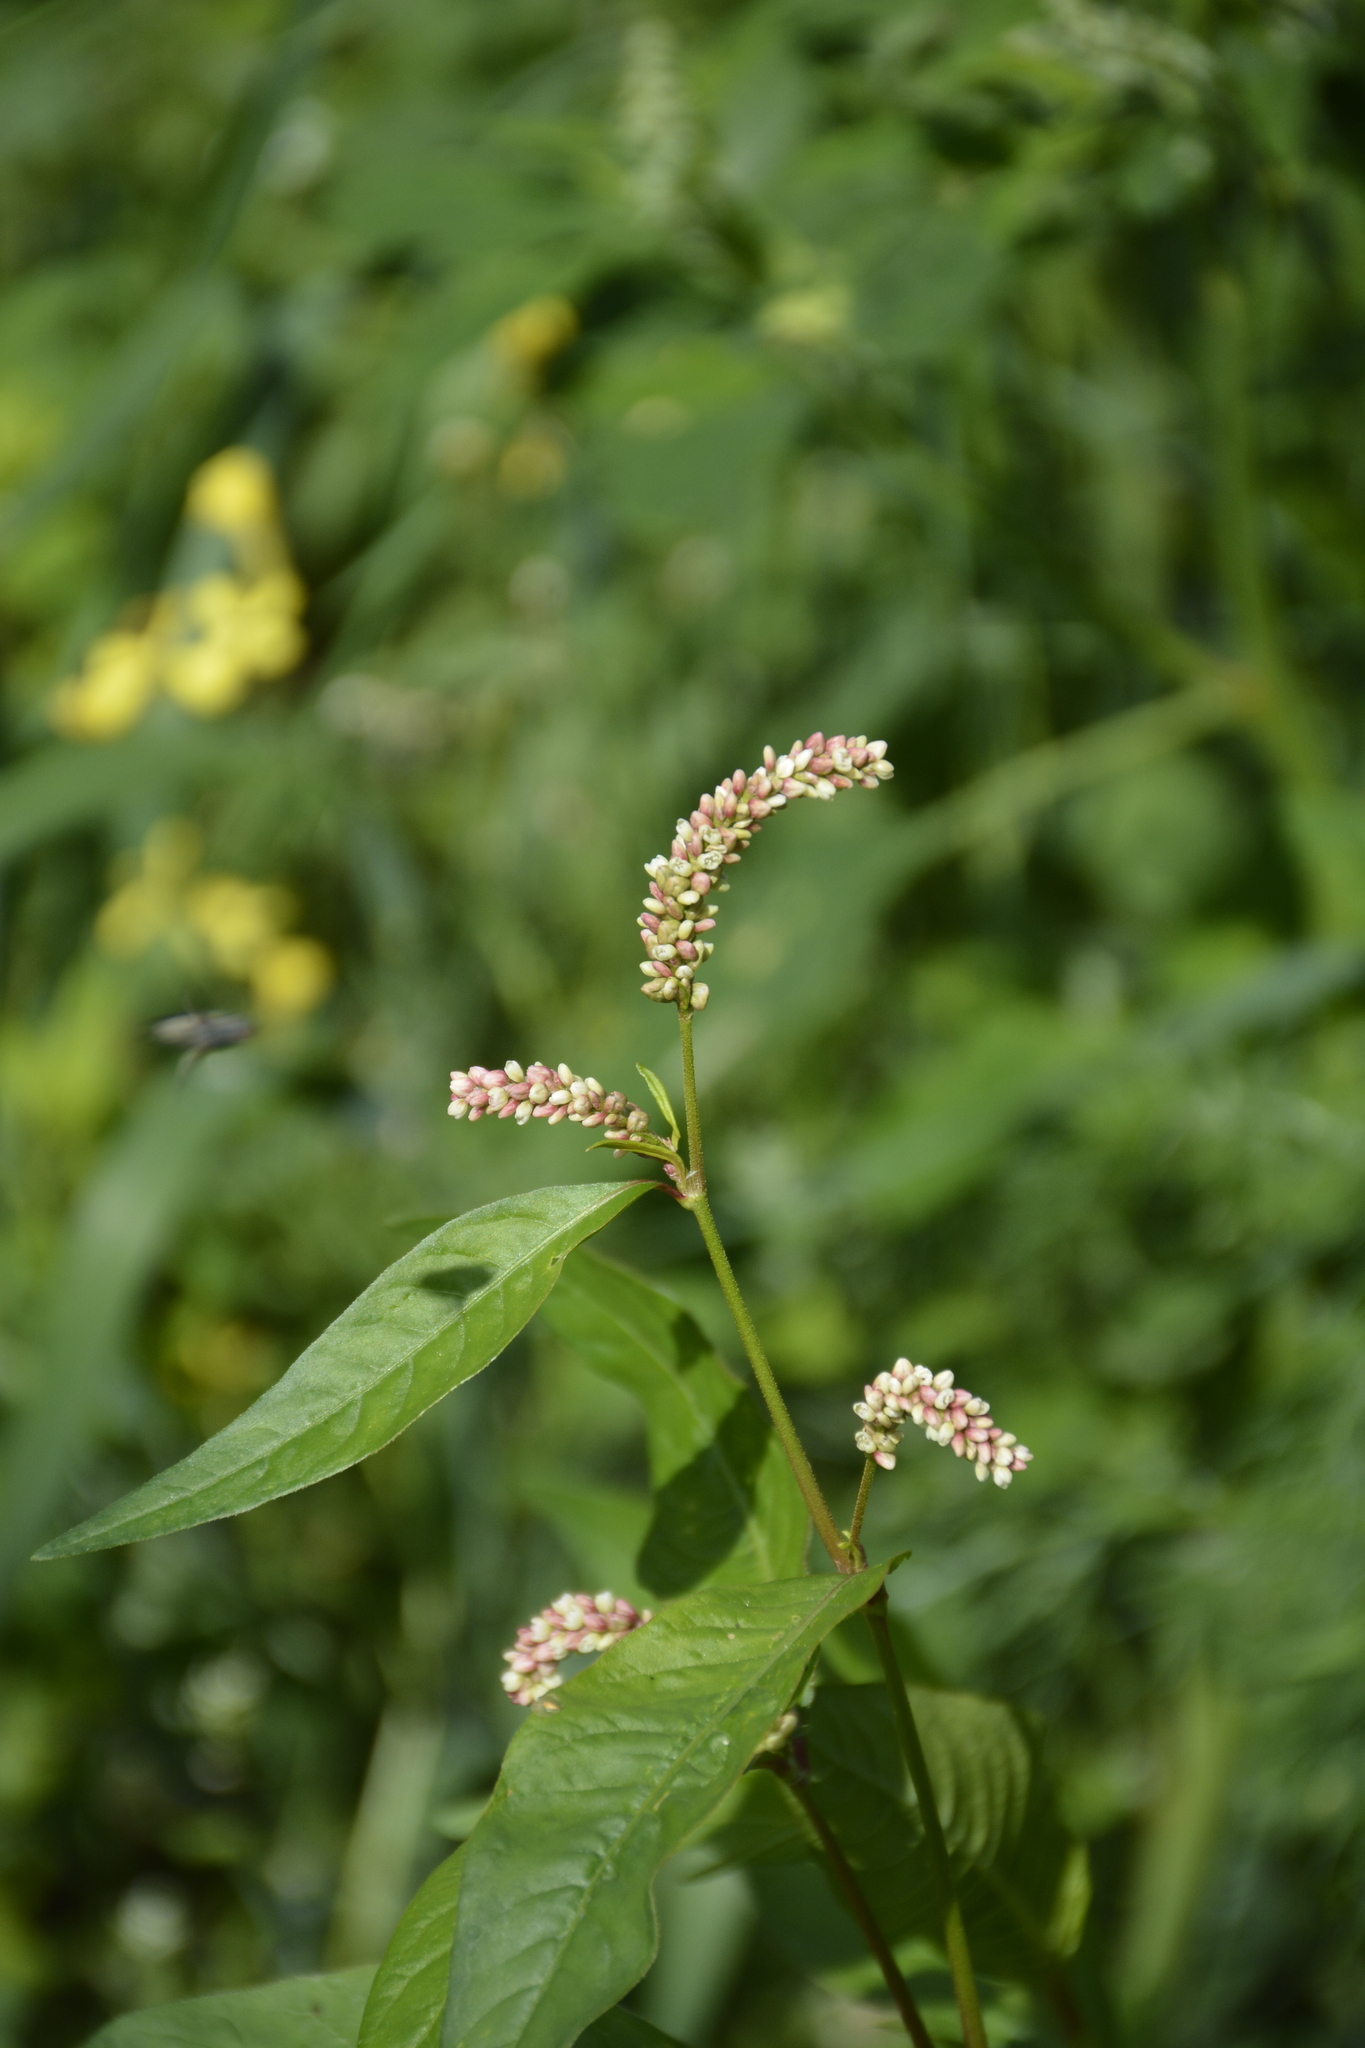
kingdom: Plantae
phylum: Tracheophyta
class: Magnoliopsida
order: Caryophyllales
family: Polygonaceae
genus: Persicaria
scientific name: Persicaria lapathifolia
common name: Curlytop knotweed
